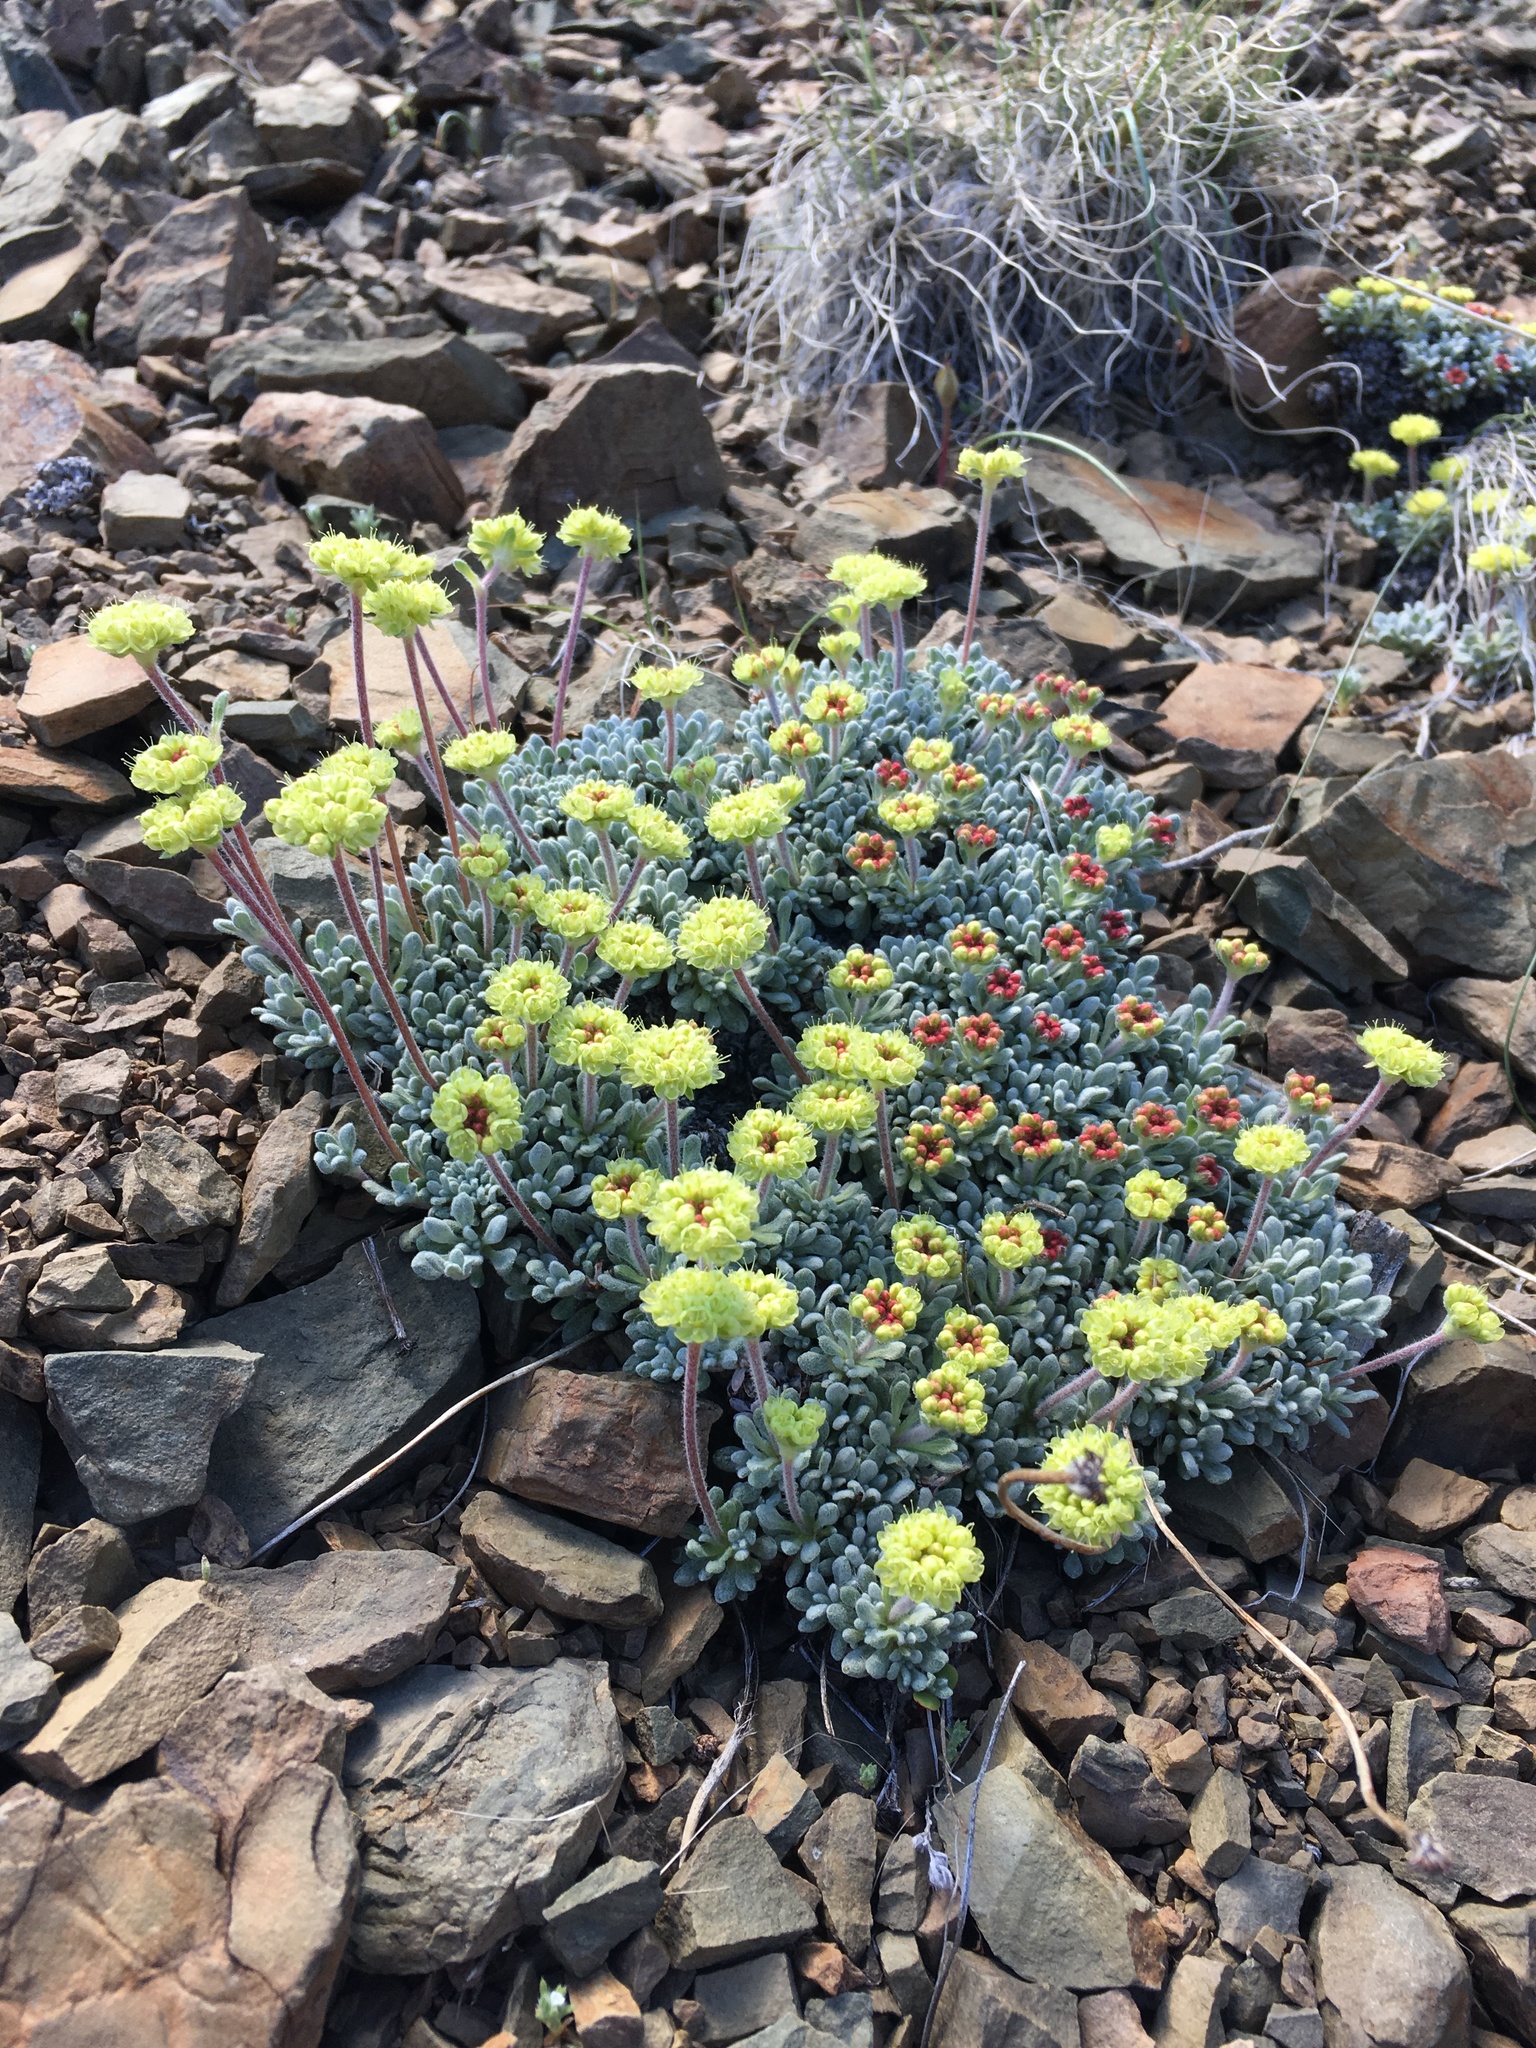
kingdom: Plantae
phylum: Tracheophyta
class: Magnoliopsida
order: Caryophyllales
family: Polygonaceae
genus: Eriogonum
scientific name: Eriogonum caespitosum
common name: Matted wild buckwheat
